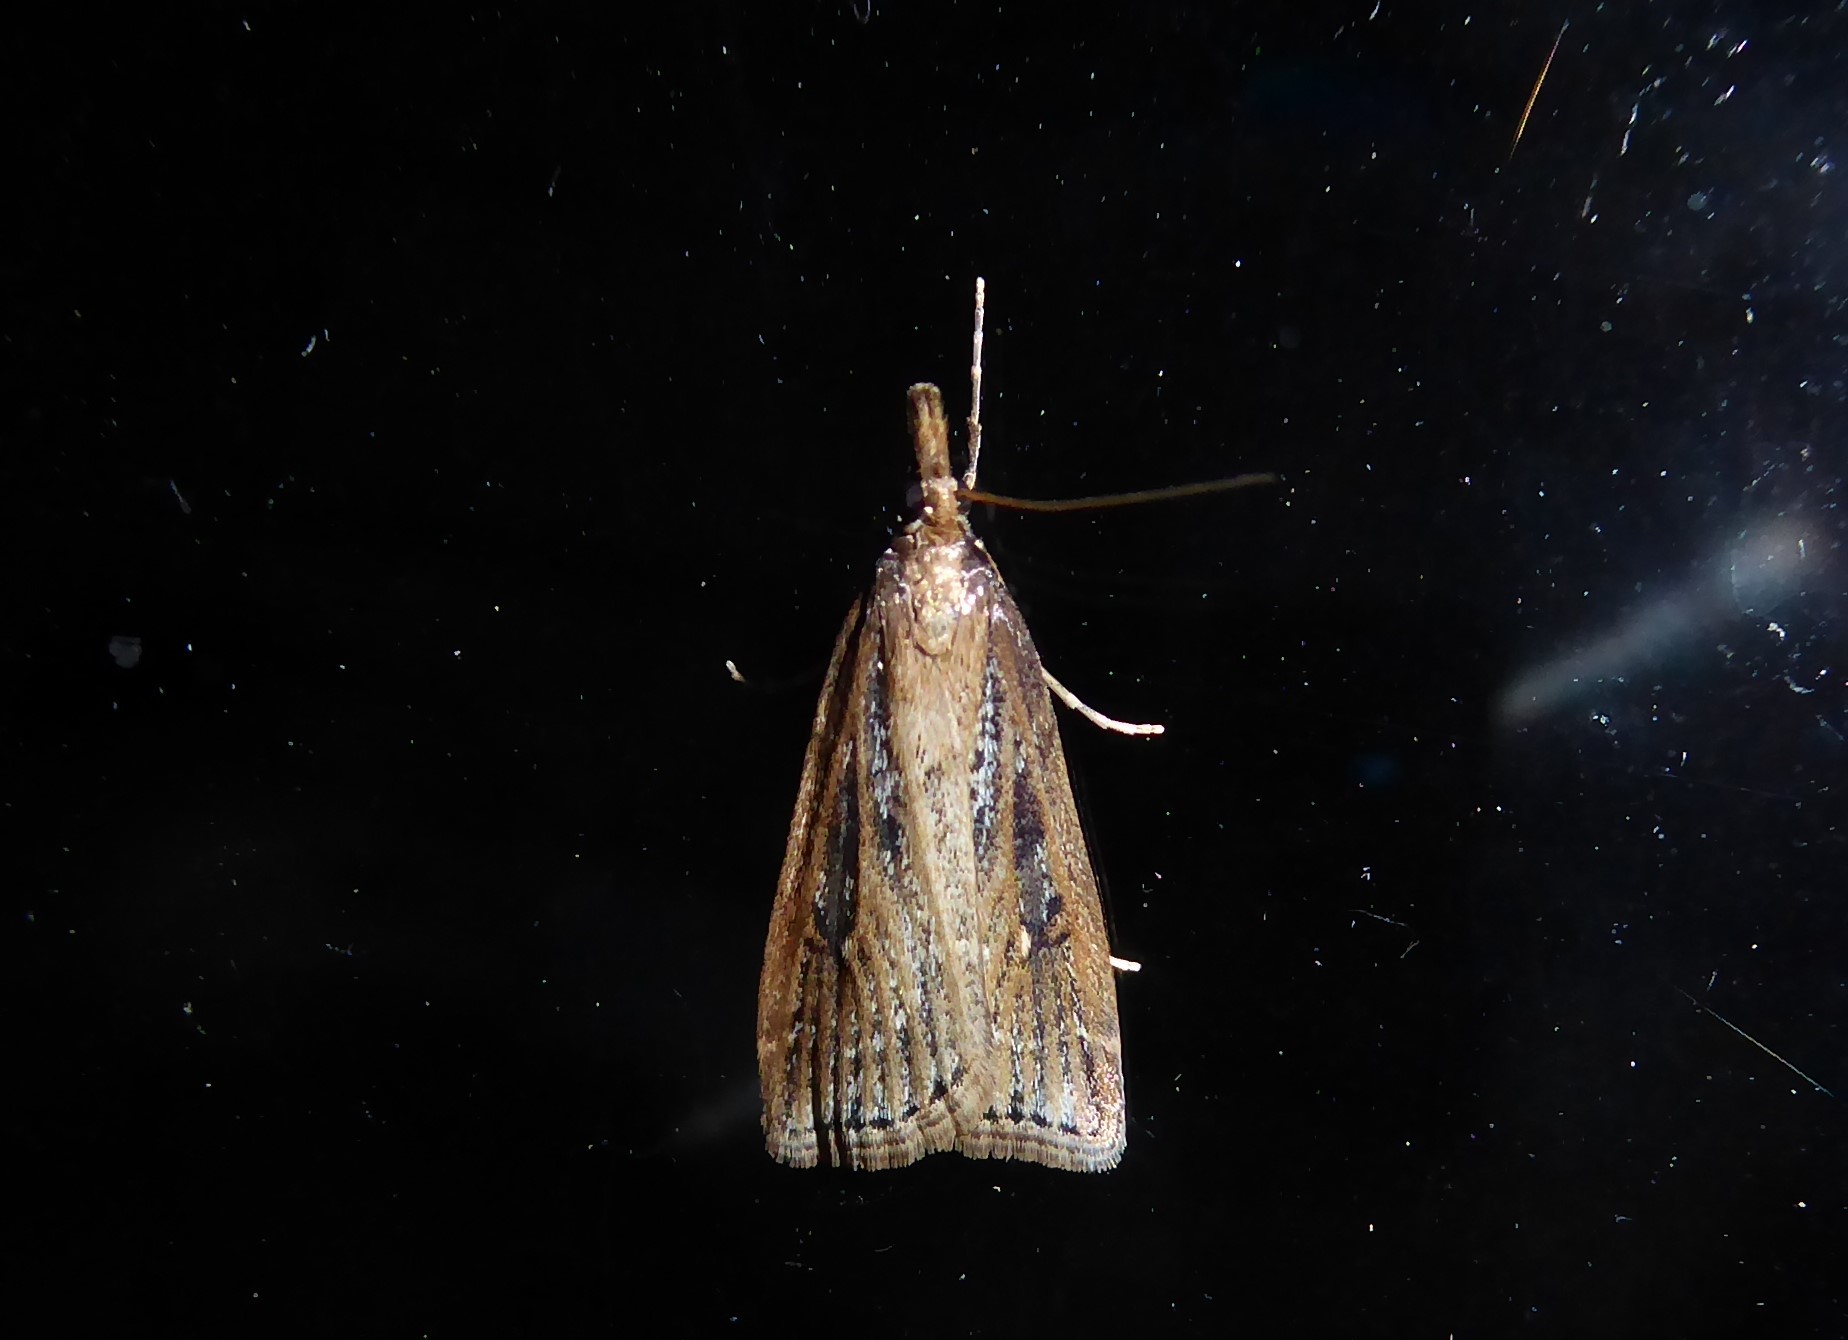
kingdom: Animalia
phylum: Arthropoda
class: Insecta
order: Lepidoptera
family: Crambidae
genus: Eudonia
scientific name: Eudonia octophora
